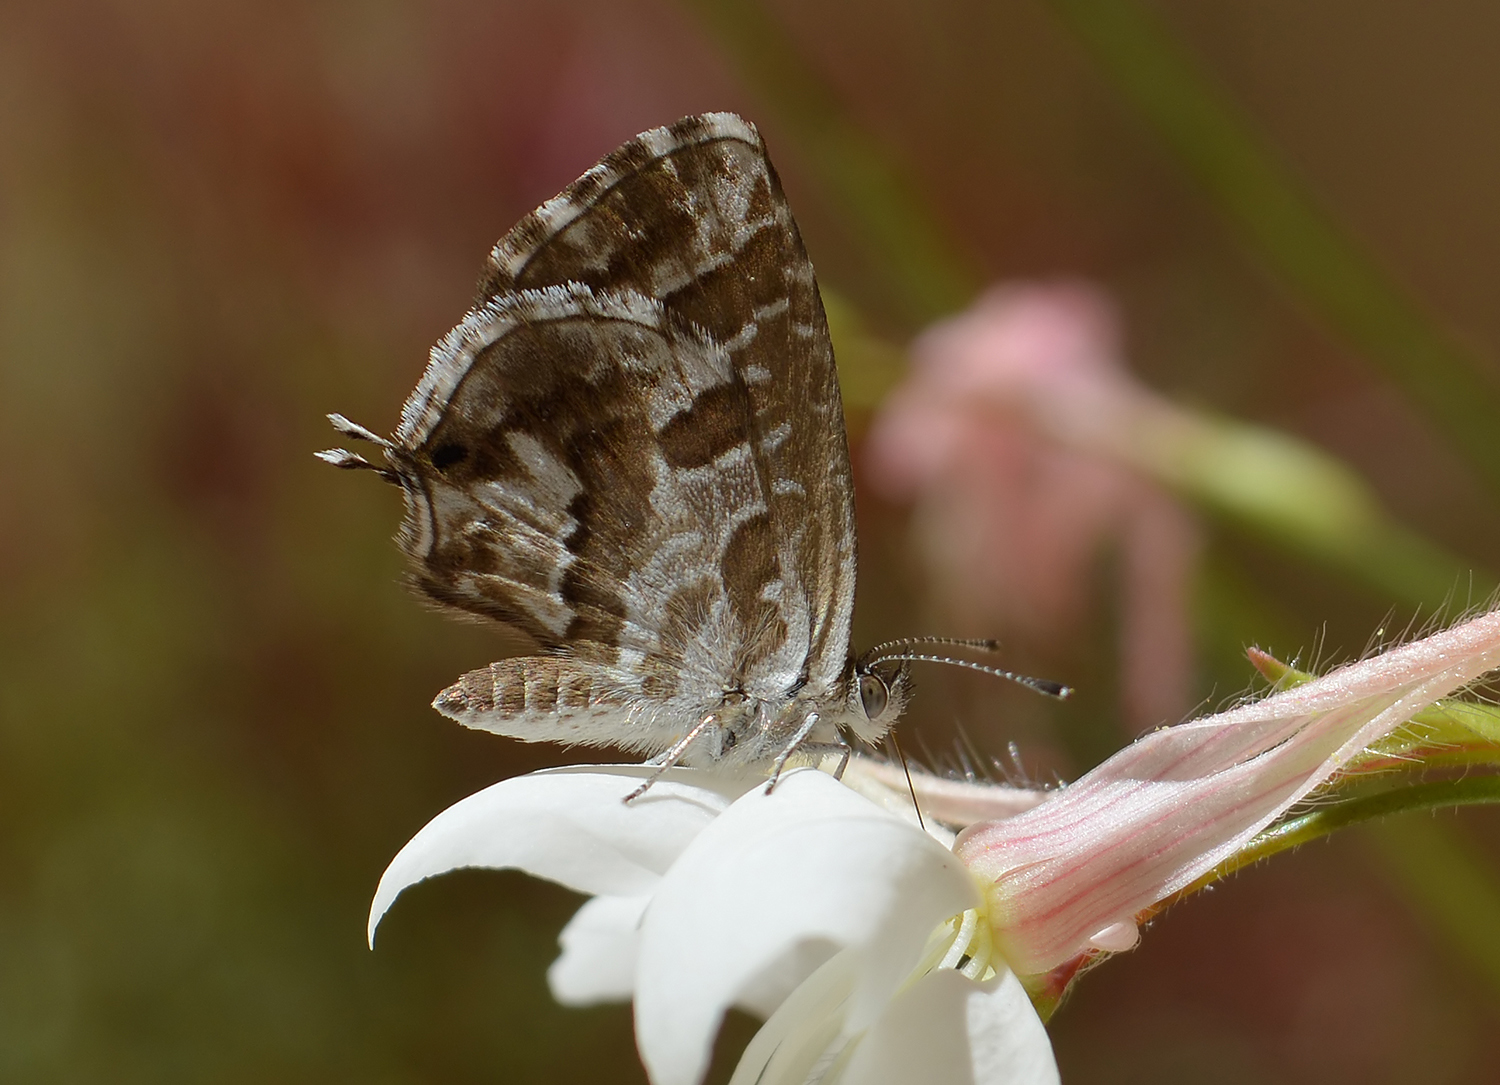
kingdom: Animalia
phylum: Arthropoda
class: Insecta
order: Lepidoptera
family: Lycaenidae
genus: Cacyreus
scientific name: Cacyreus marshalli
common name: Geranium bronze
